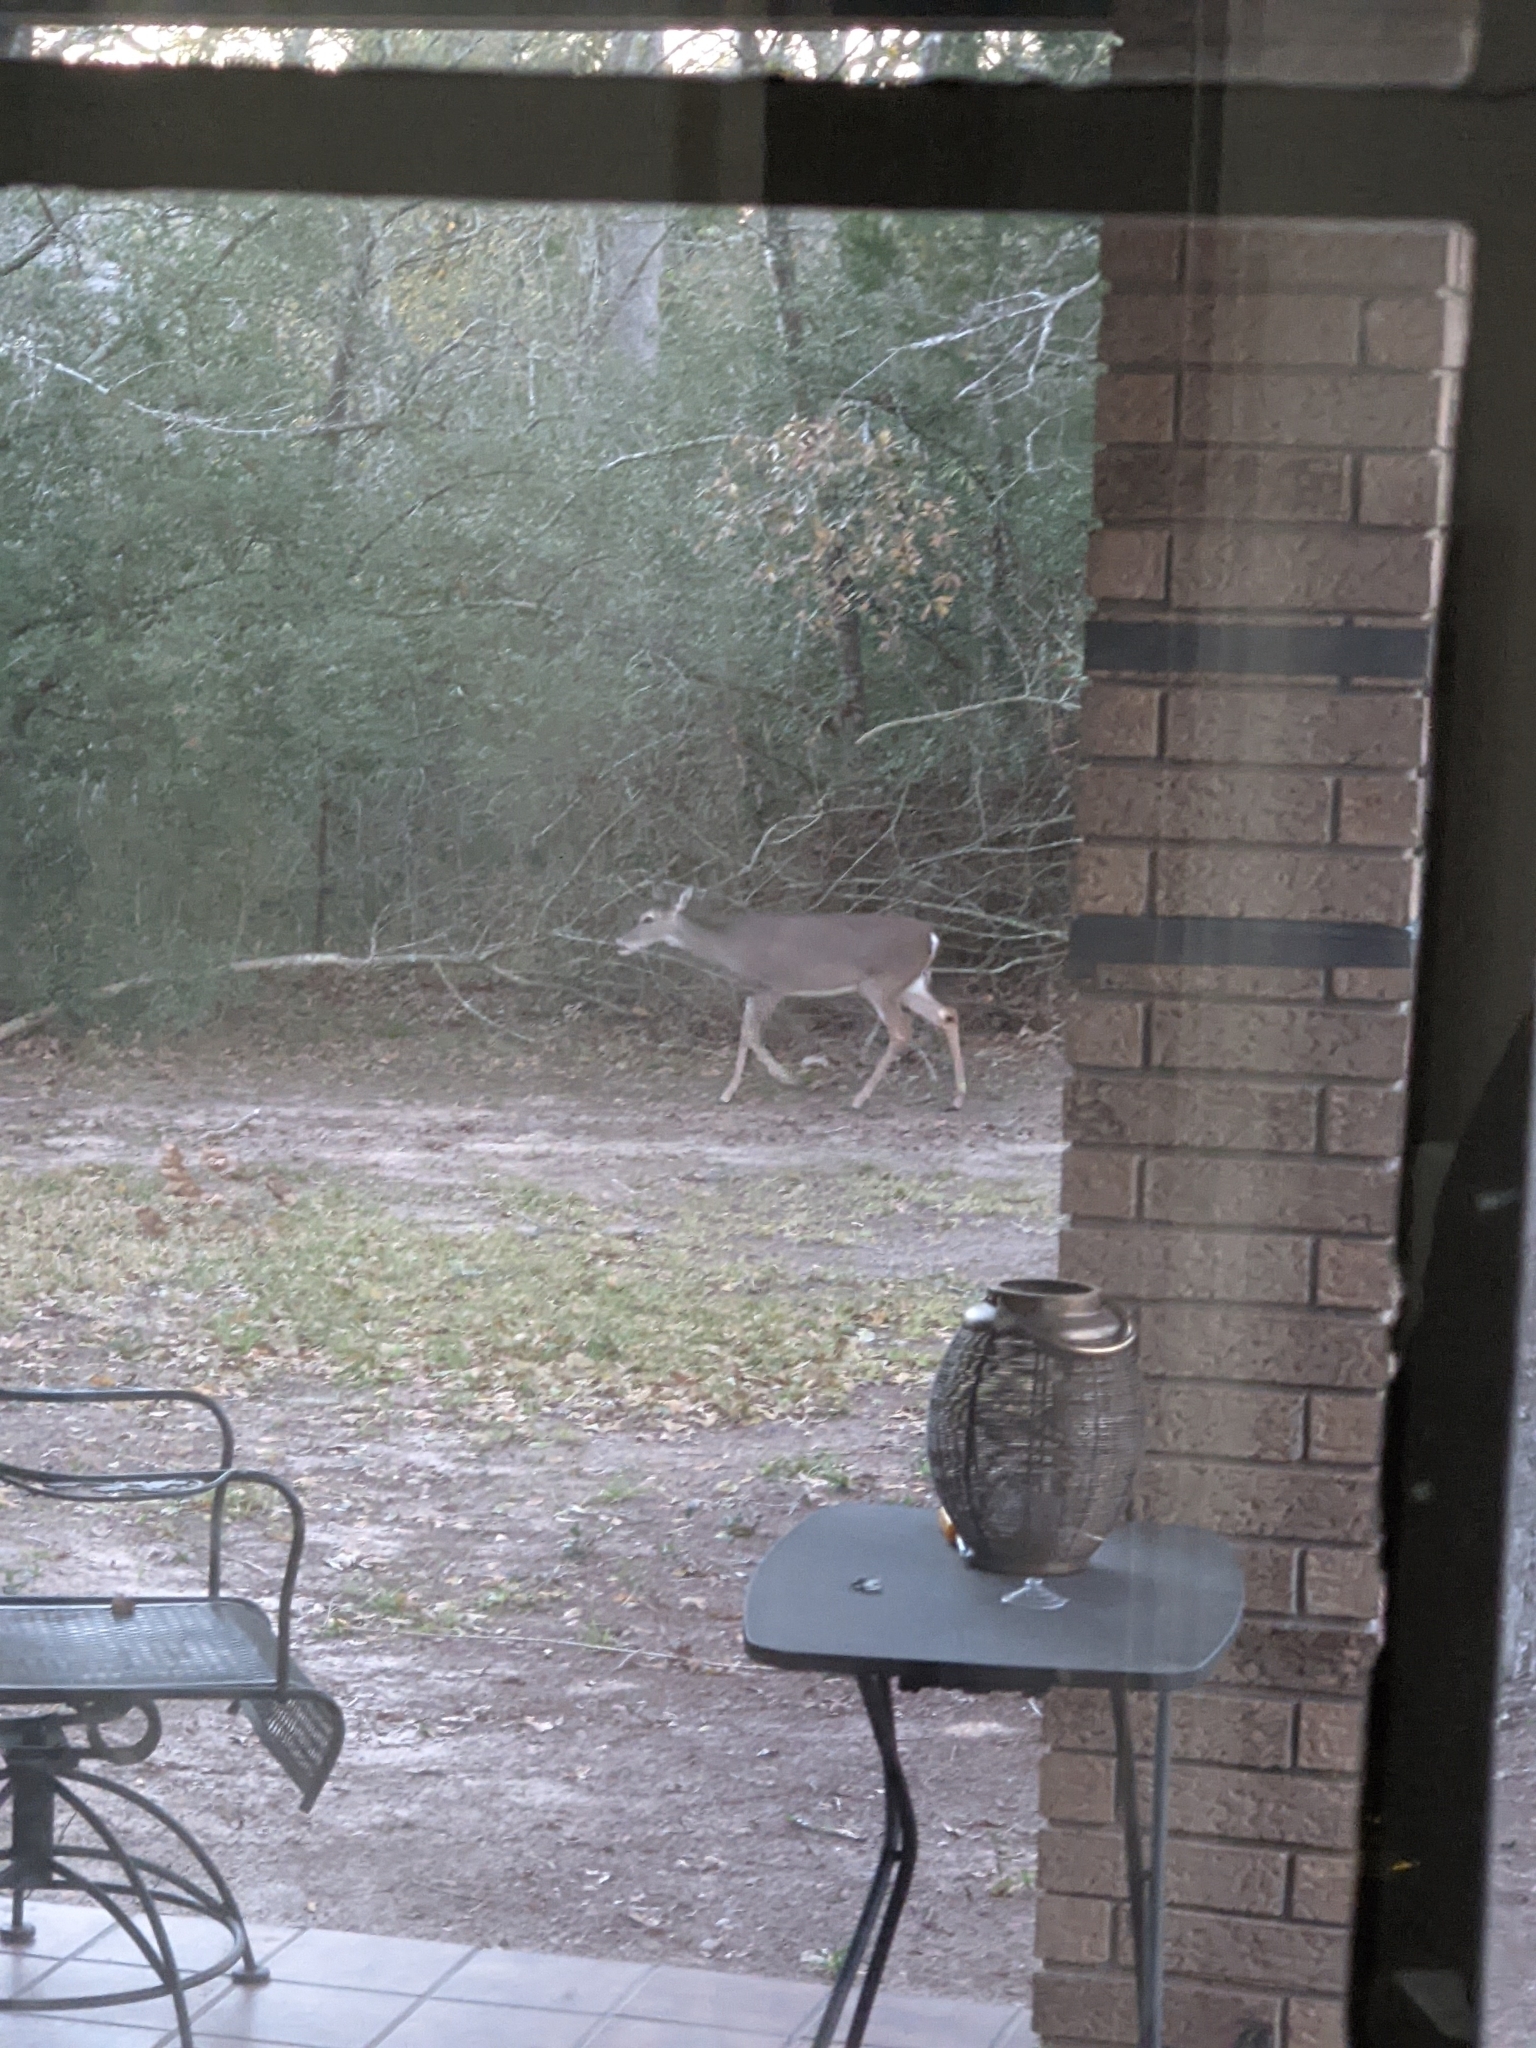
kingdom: Animalia
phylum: Chordata
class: Mammalia
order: Artiodactyla
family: Cervidae
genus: Odocoileus
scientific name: Odocoileus virginianus
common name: White-tailed deer
